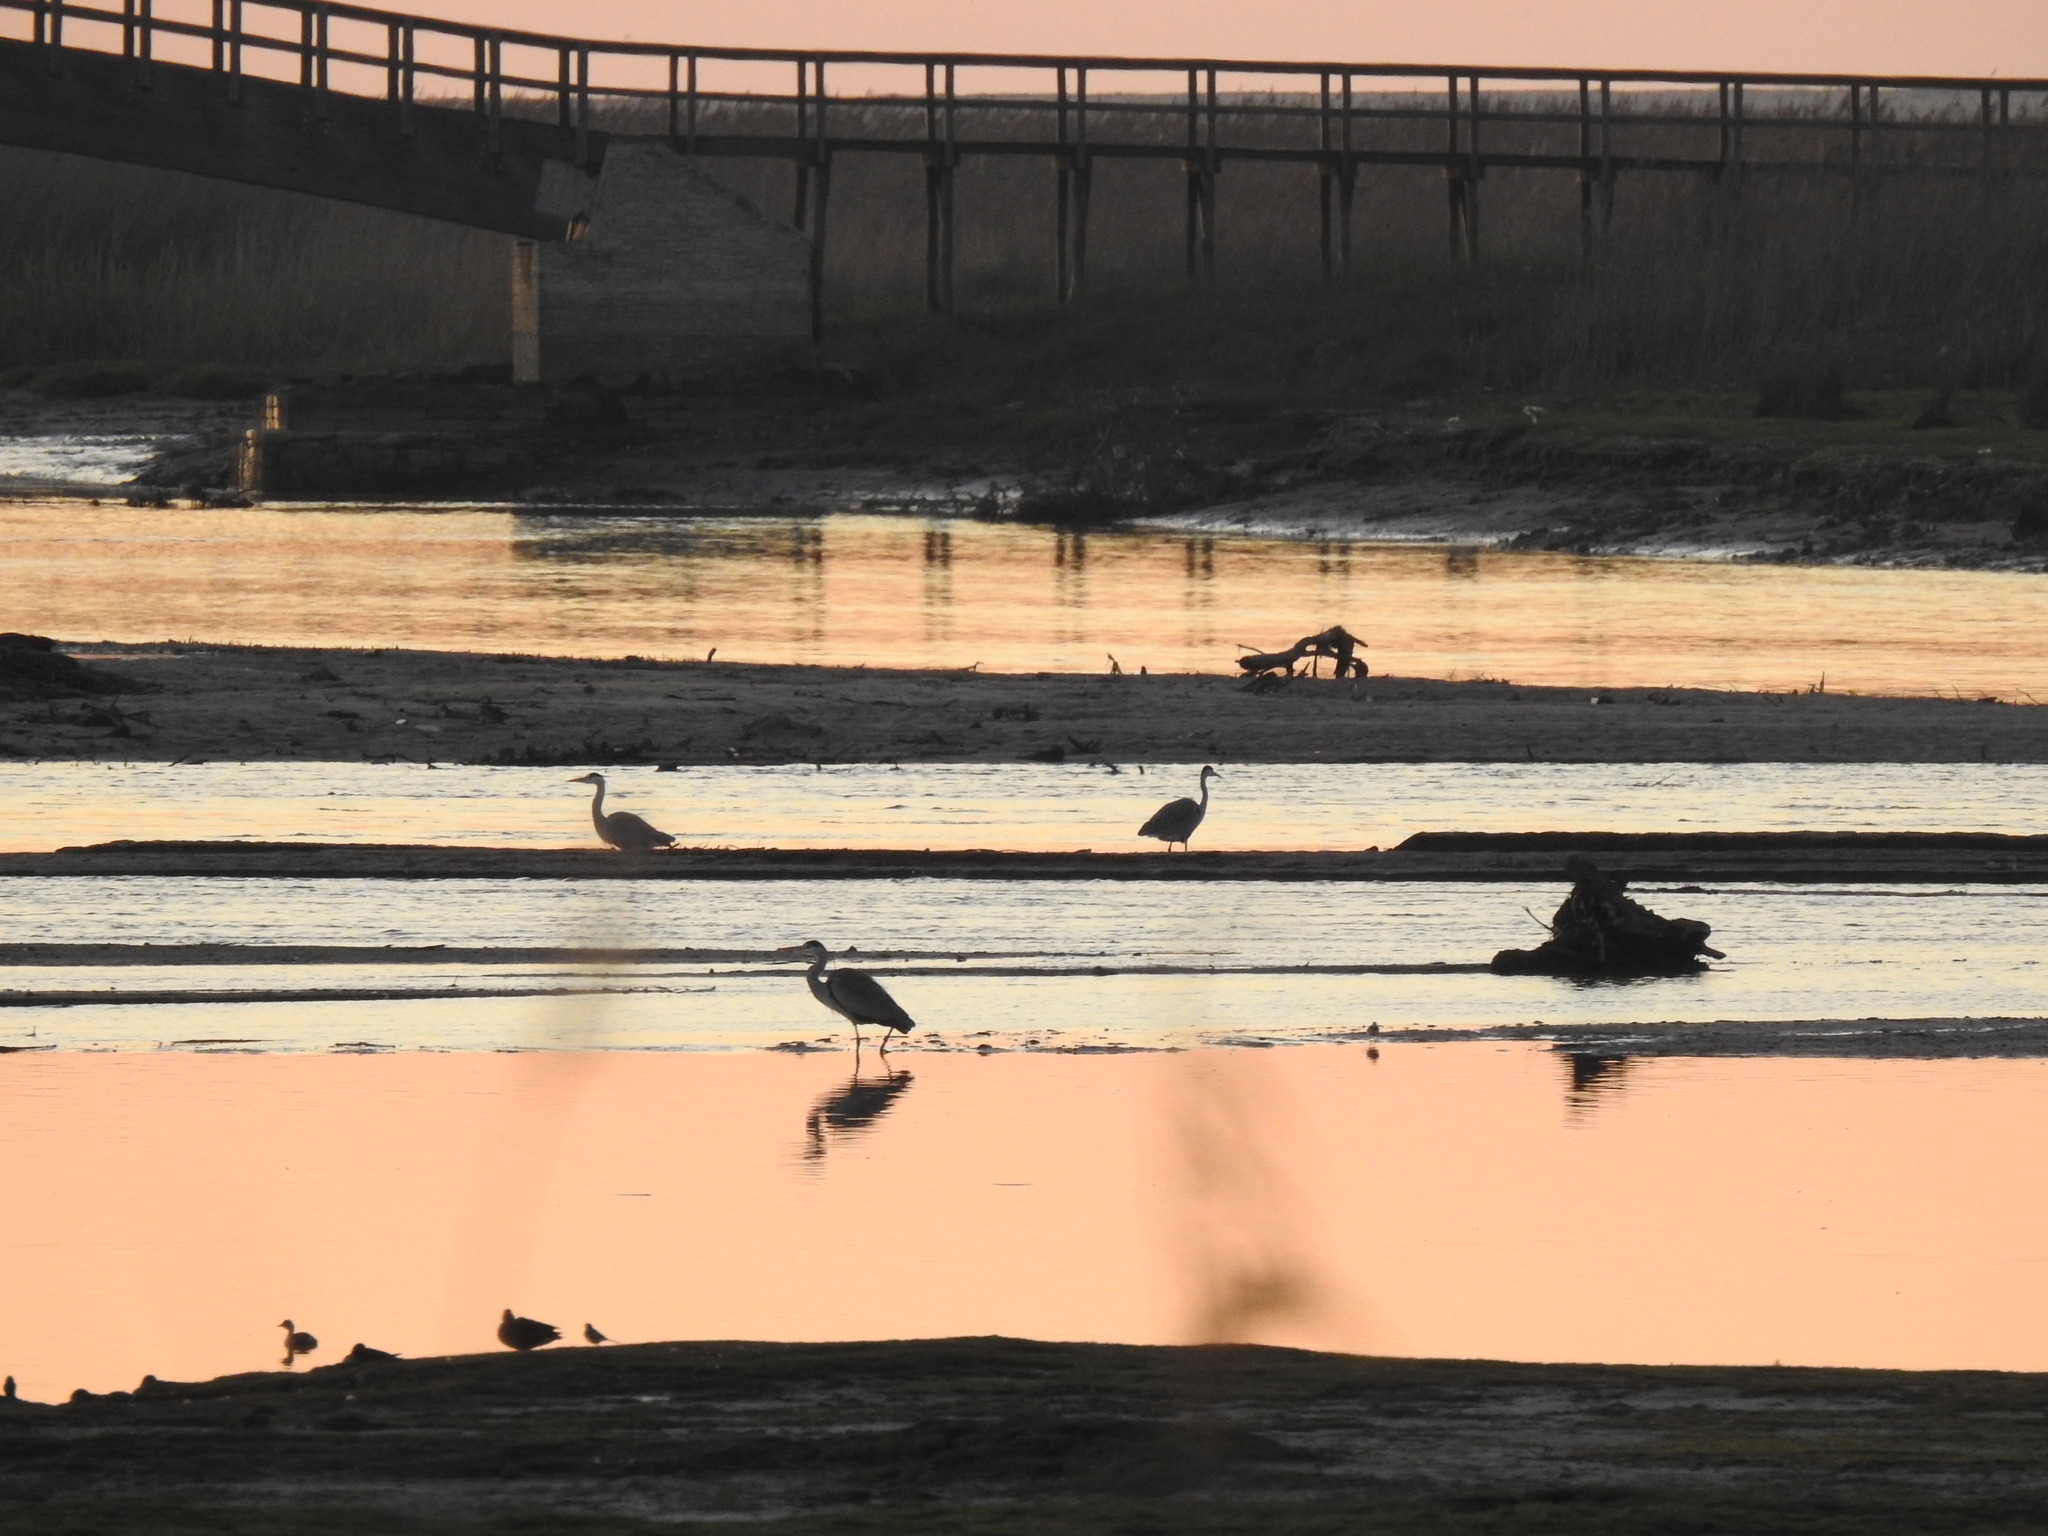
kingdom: Animalia
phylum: Chordata
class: Aves
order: Pelecaniformes
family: Ardeidae
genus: Ardea
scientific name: Ardea cinerea
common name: Grey heron
